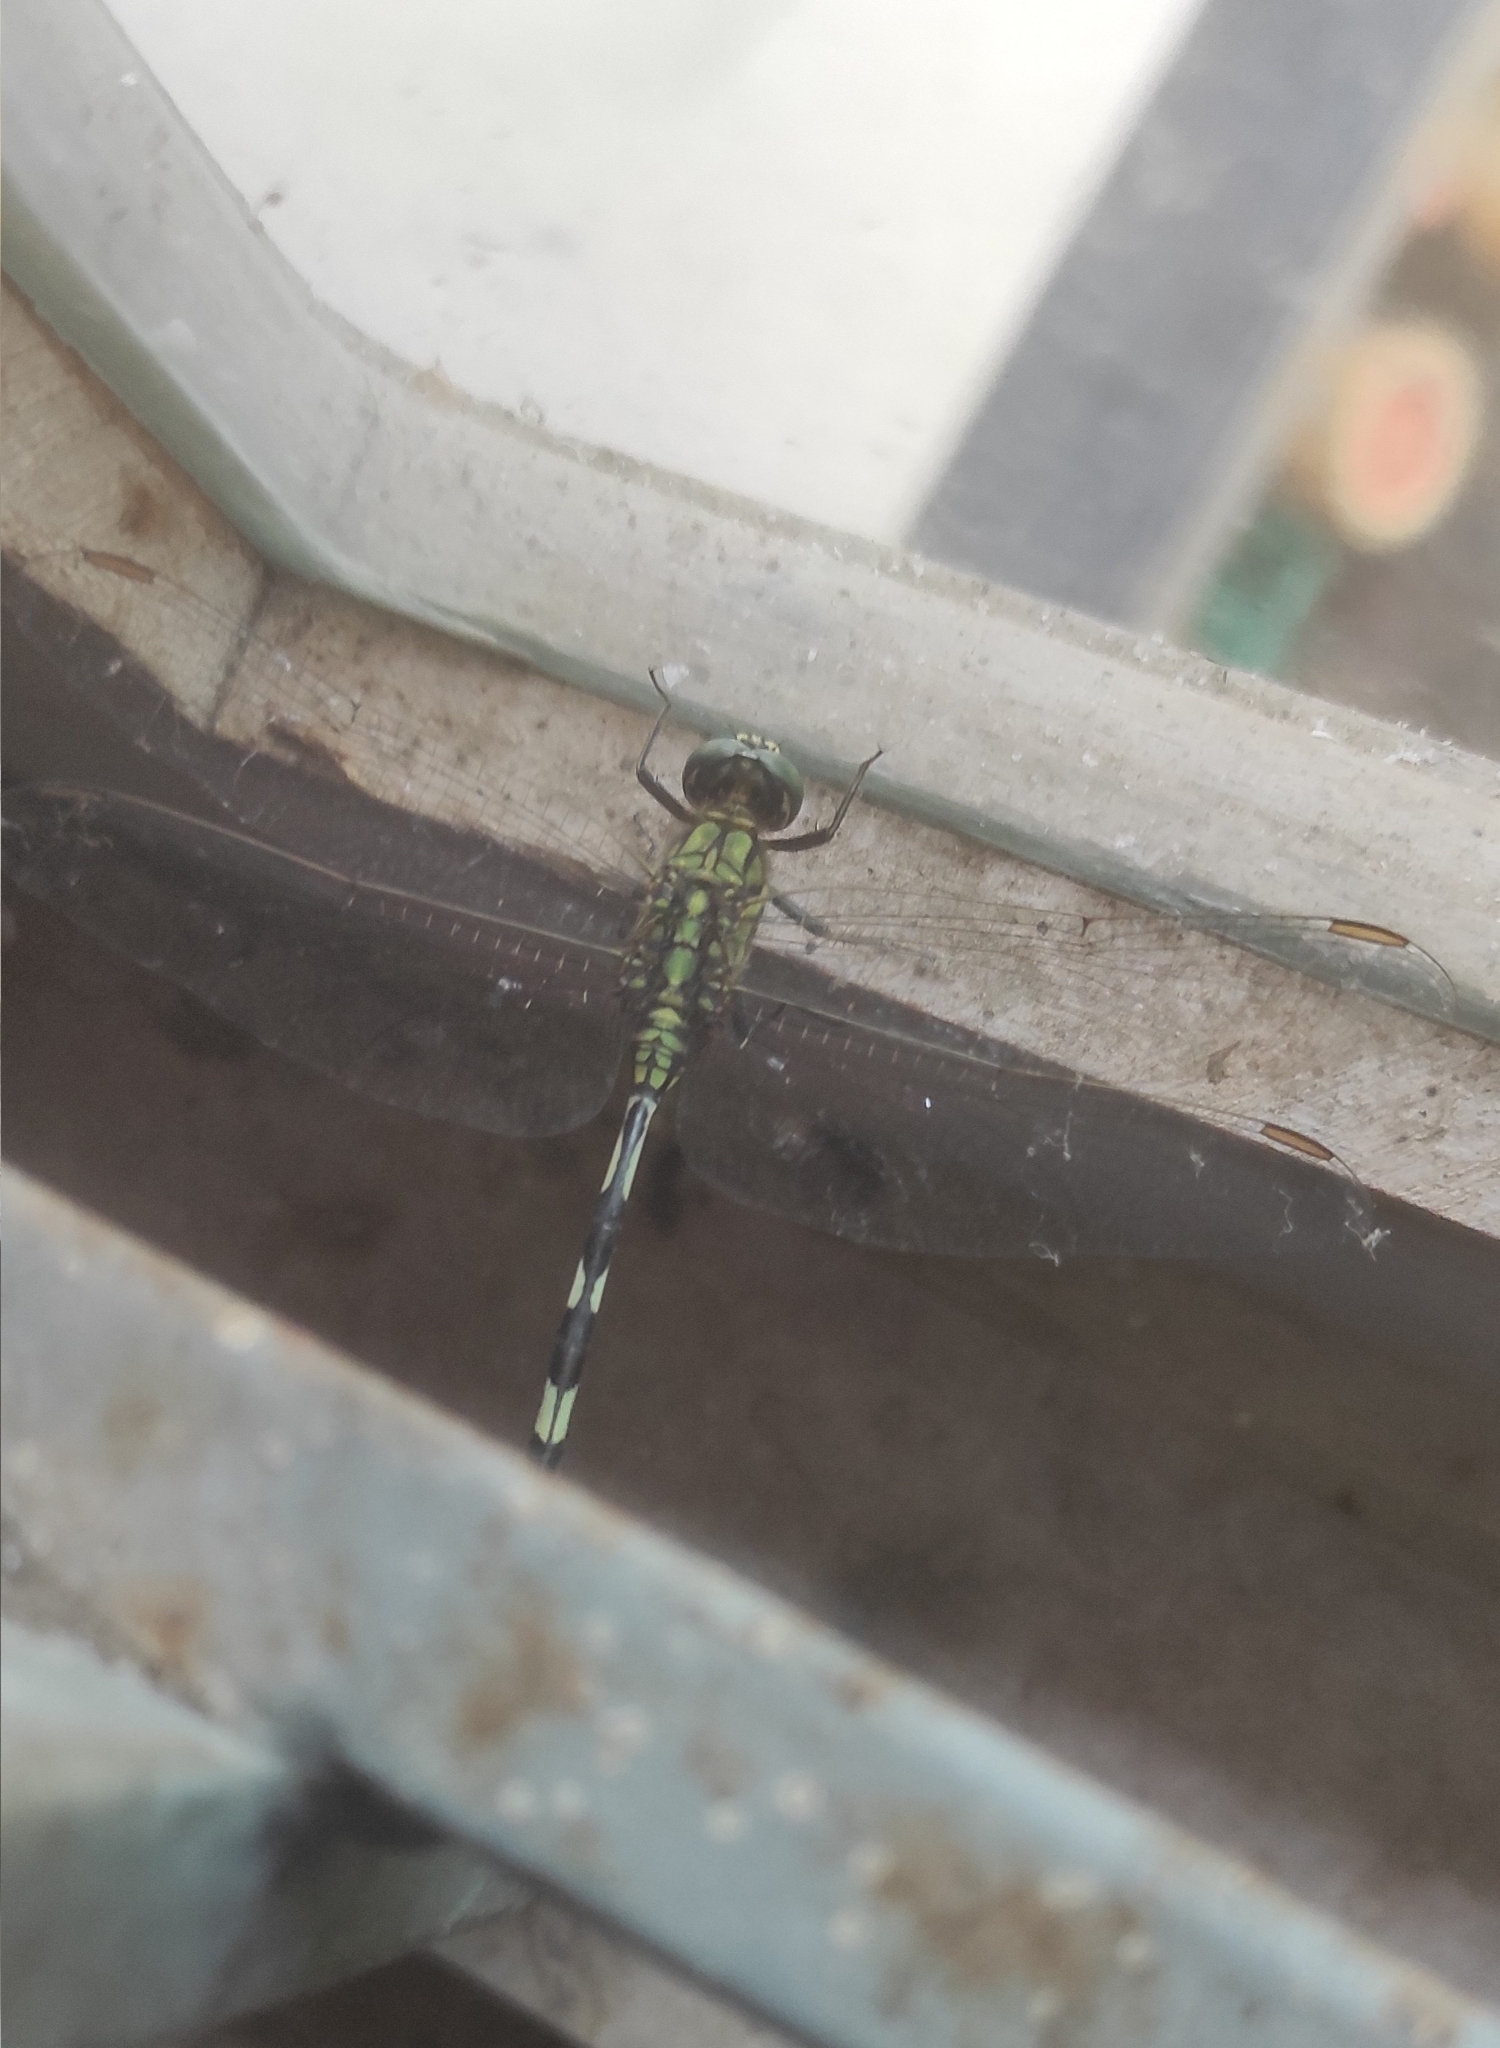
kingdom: Animalia
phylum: Arthropoda
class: Insecta
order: Odonata
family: Libellulidae
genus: Orthetrum
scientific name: Orthetrum sabina
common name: Slender skimmer
